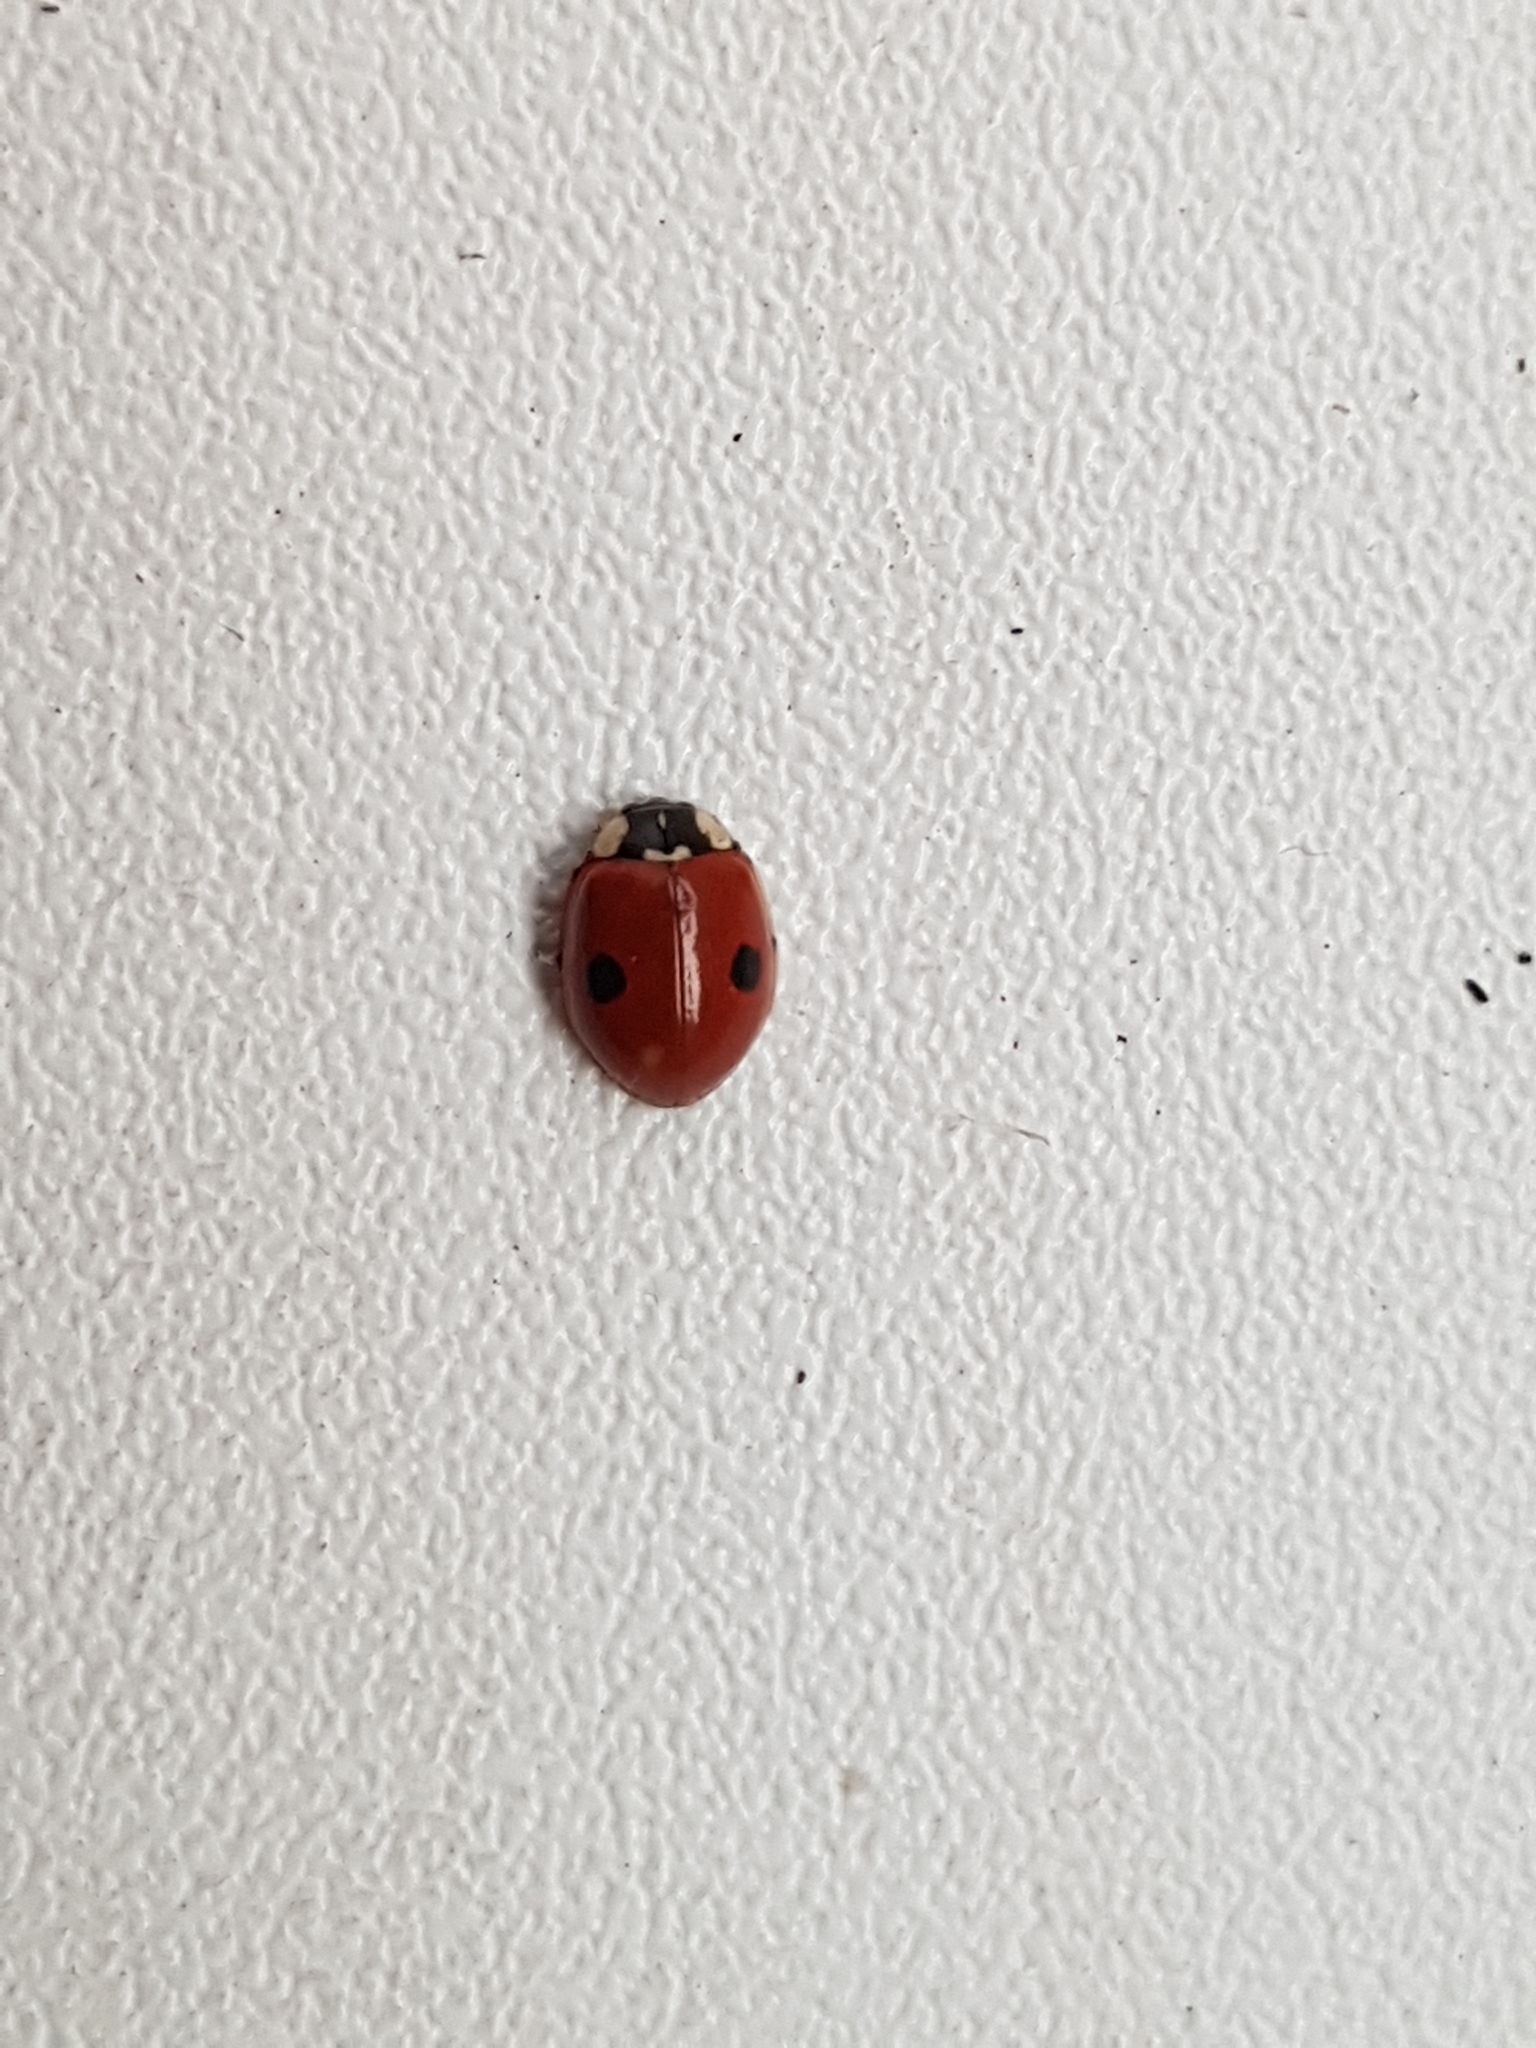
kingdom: Animalia
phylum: Arthropoda
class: Insecta
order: Coleoptera
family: Coccinellidae
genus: Adalia
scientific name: Adalia bipunctata
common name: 2-spot ladybird
